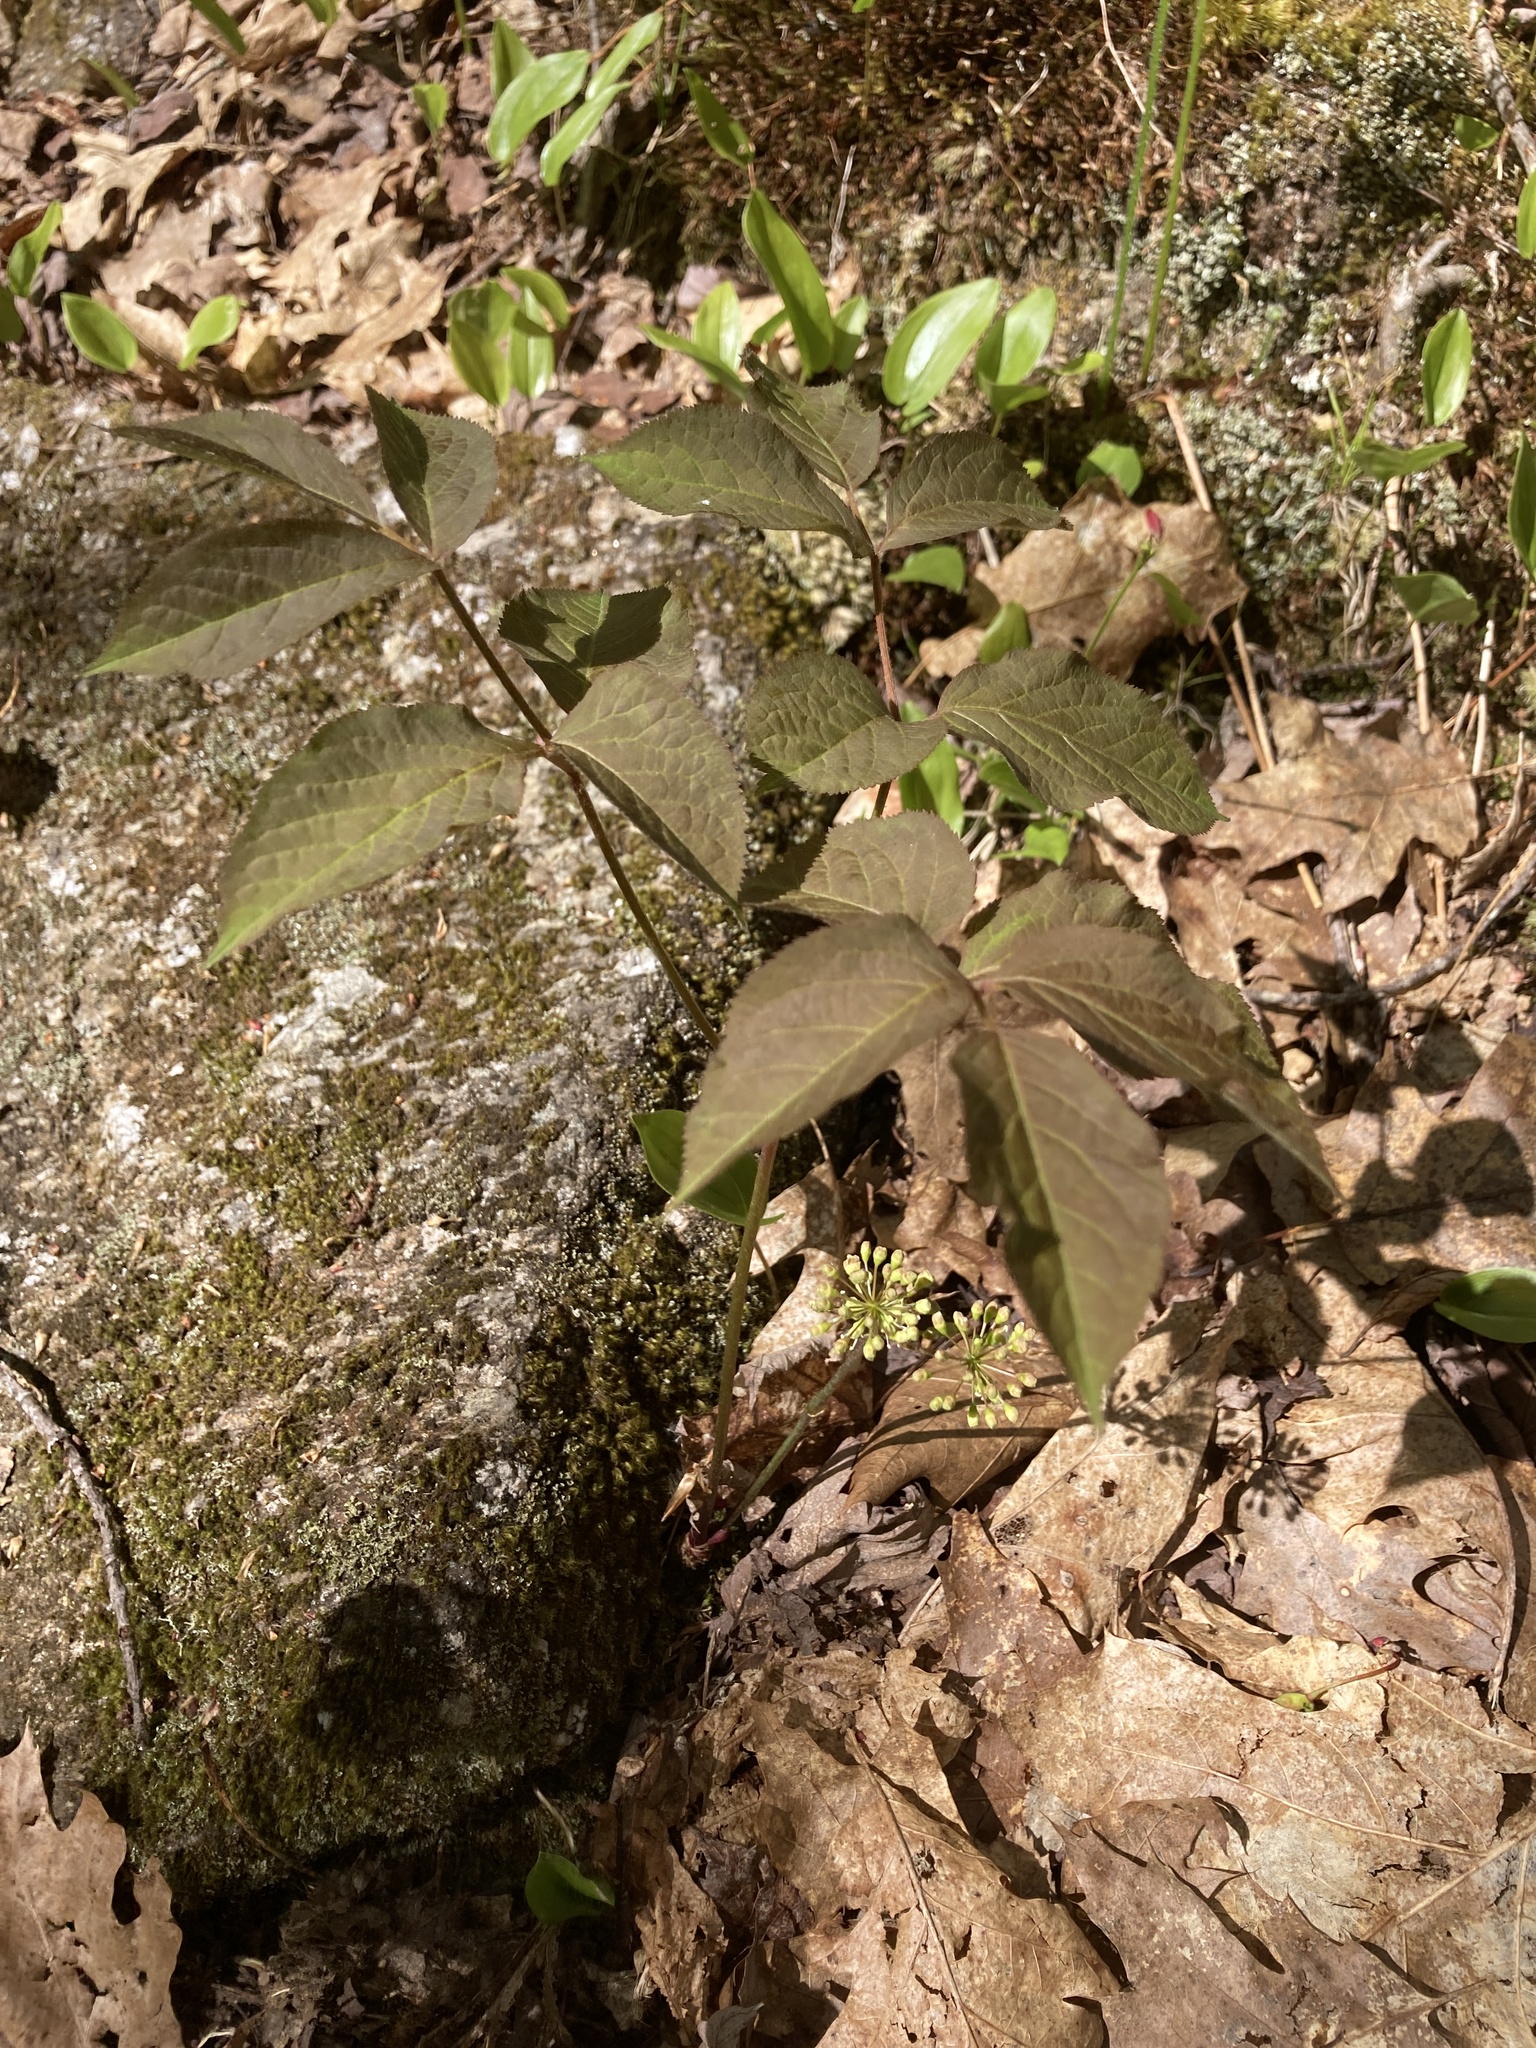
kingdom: Plantae
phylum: Tracheophyta
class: Magnoliopsida
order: Apiales
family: Araliaceae
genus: Aralia
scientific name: Aralia nudicaulis
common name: Wild sarsaparilla
